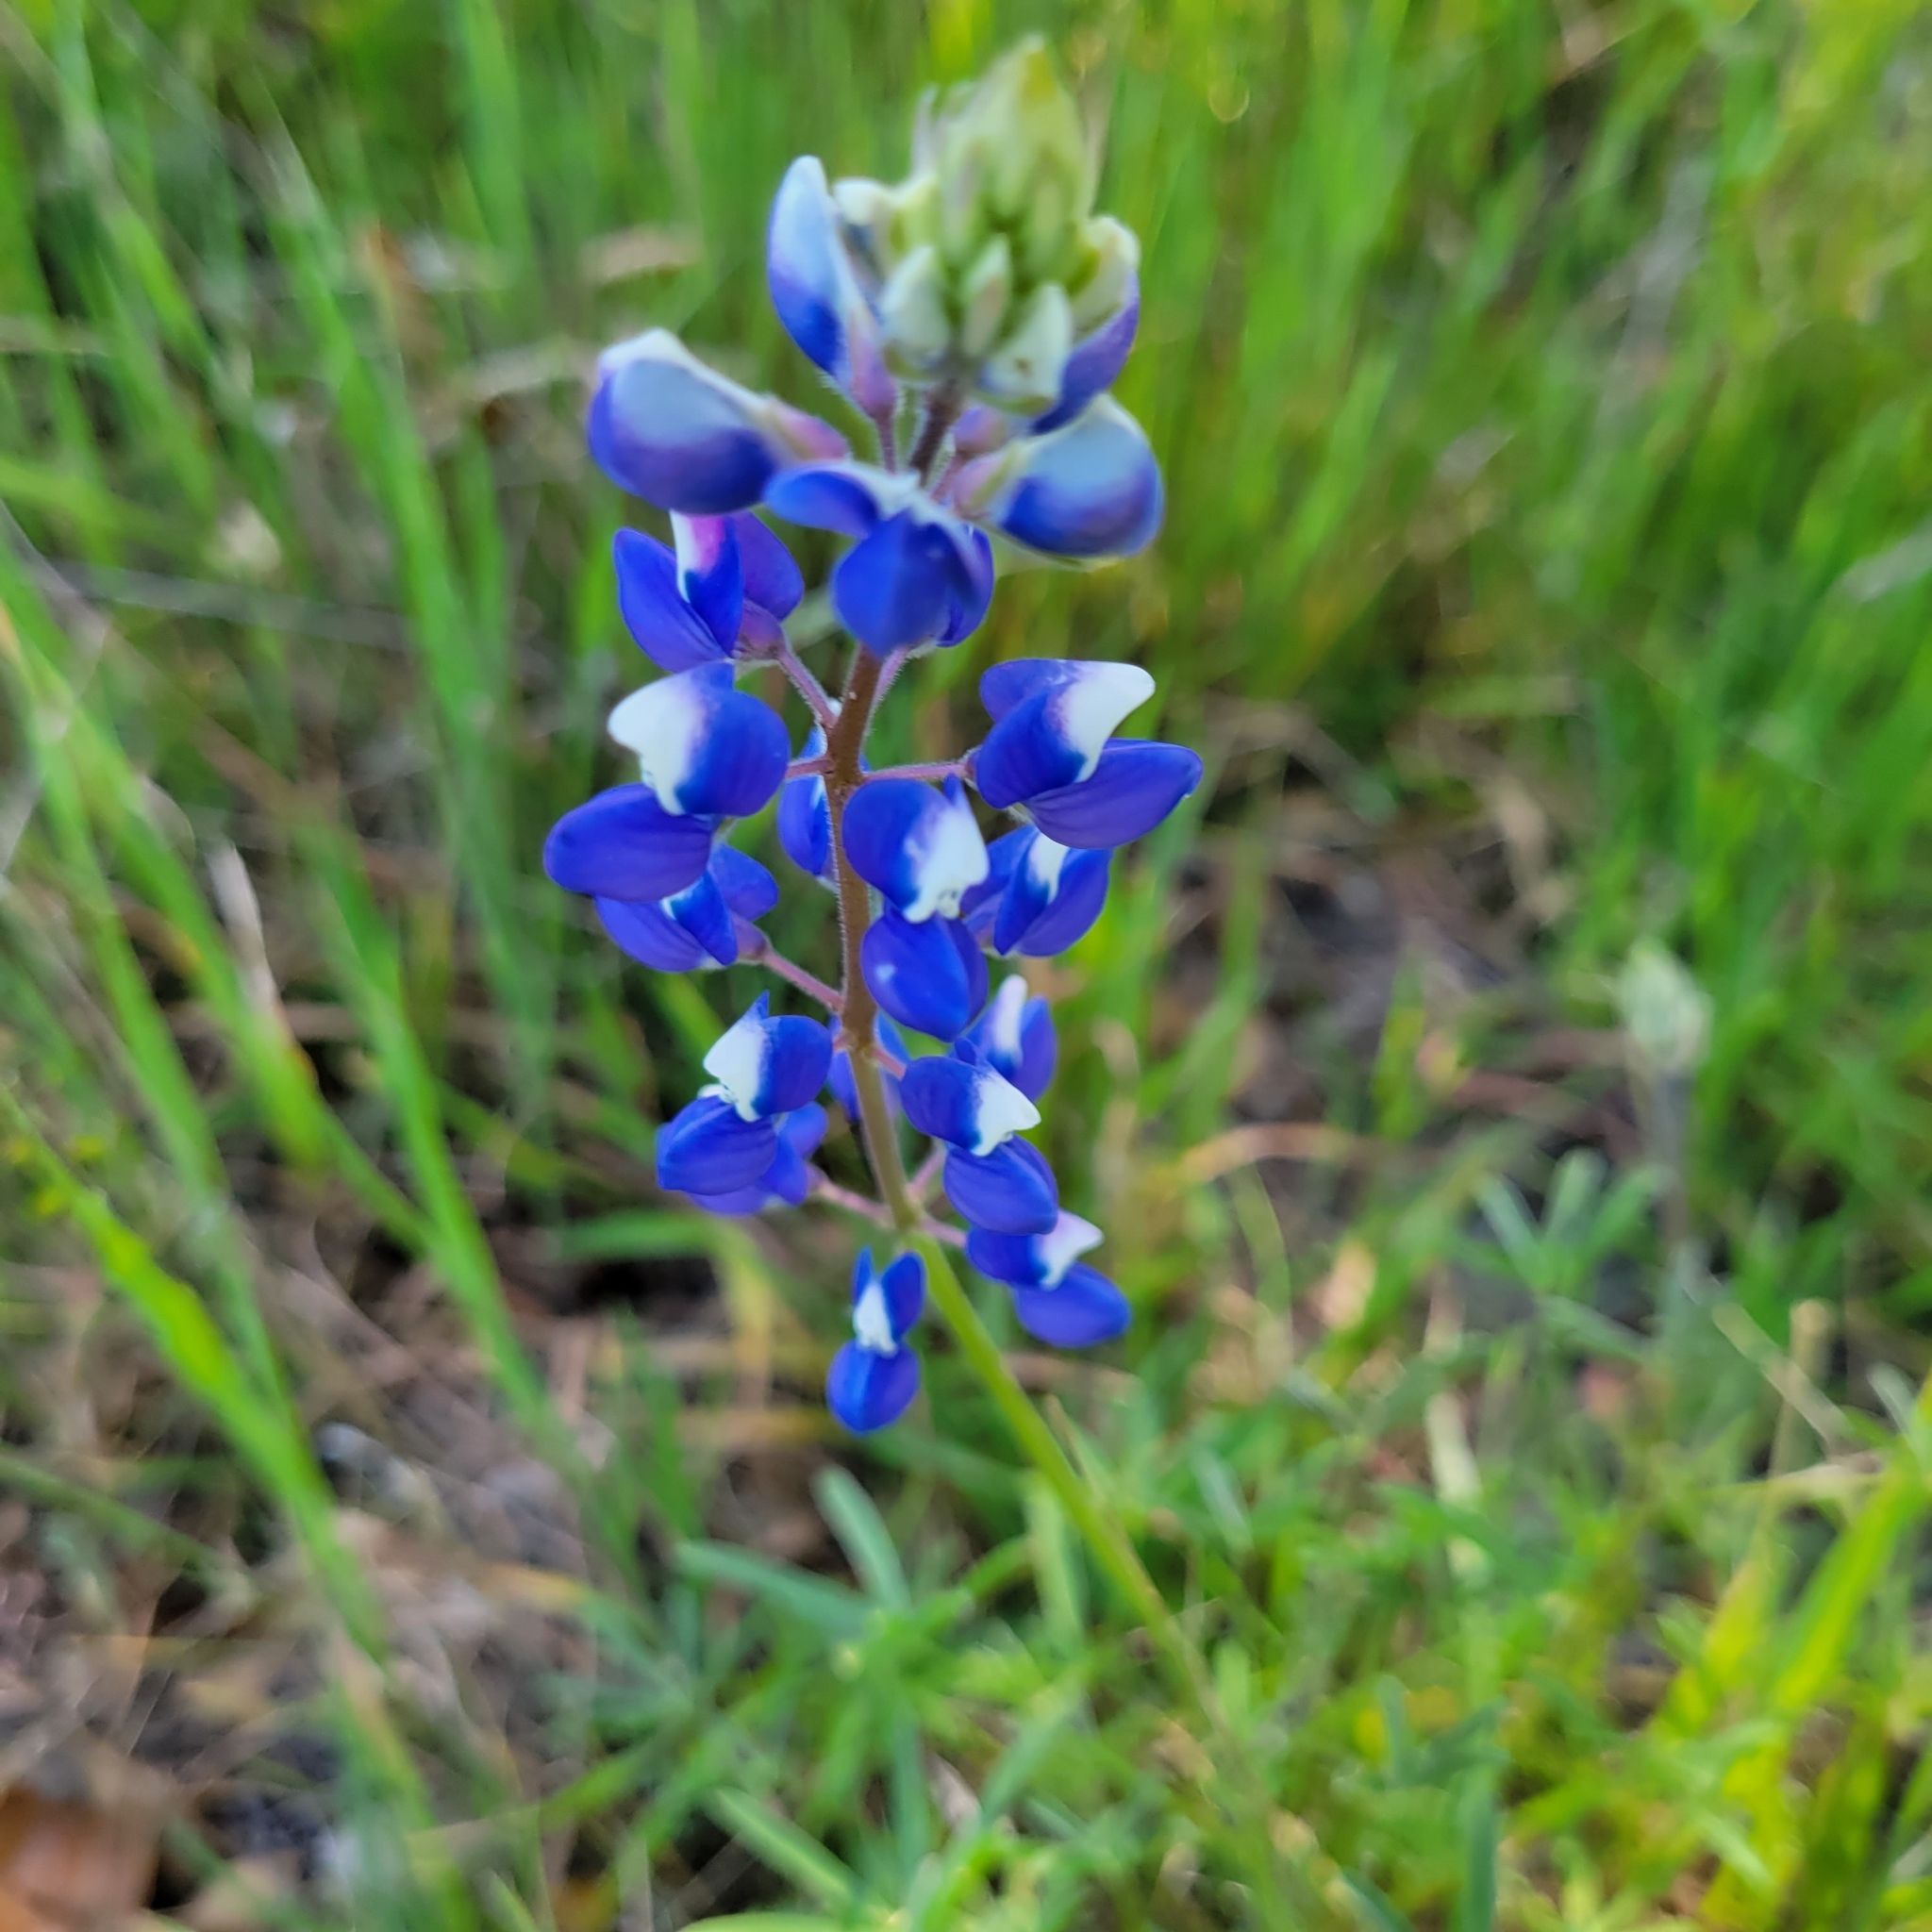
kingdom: Plantae
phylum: Tracheophyta
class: Magnoliopsida
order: Fabales
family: Fabaceae
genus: Lupinus
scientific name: Lupinus nanus
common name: Orean blue lupin
